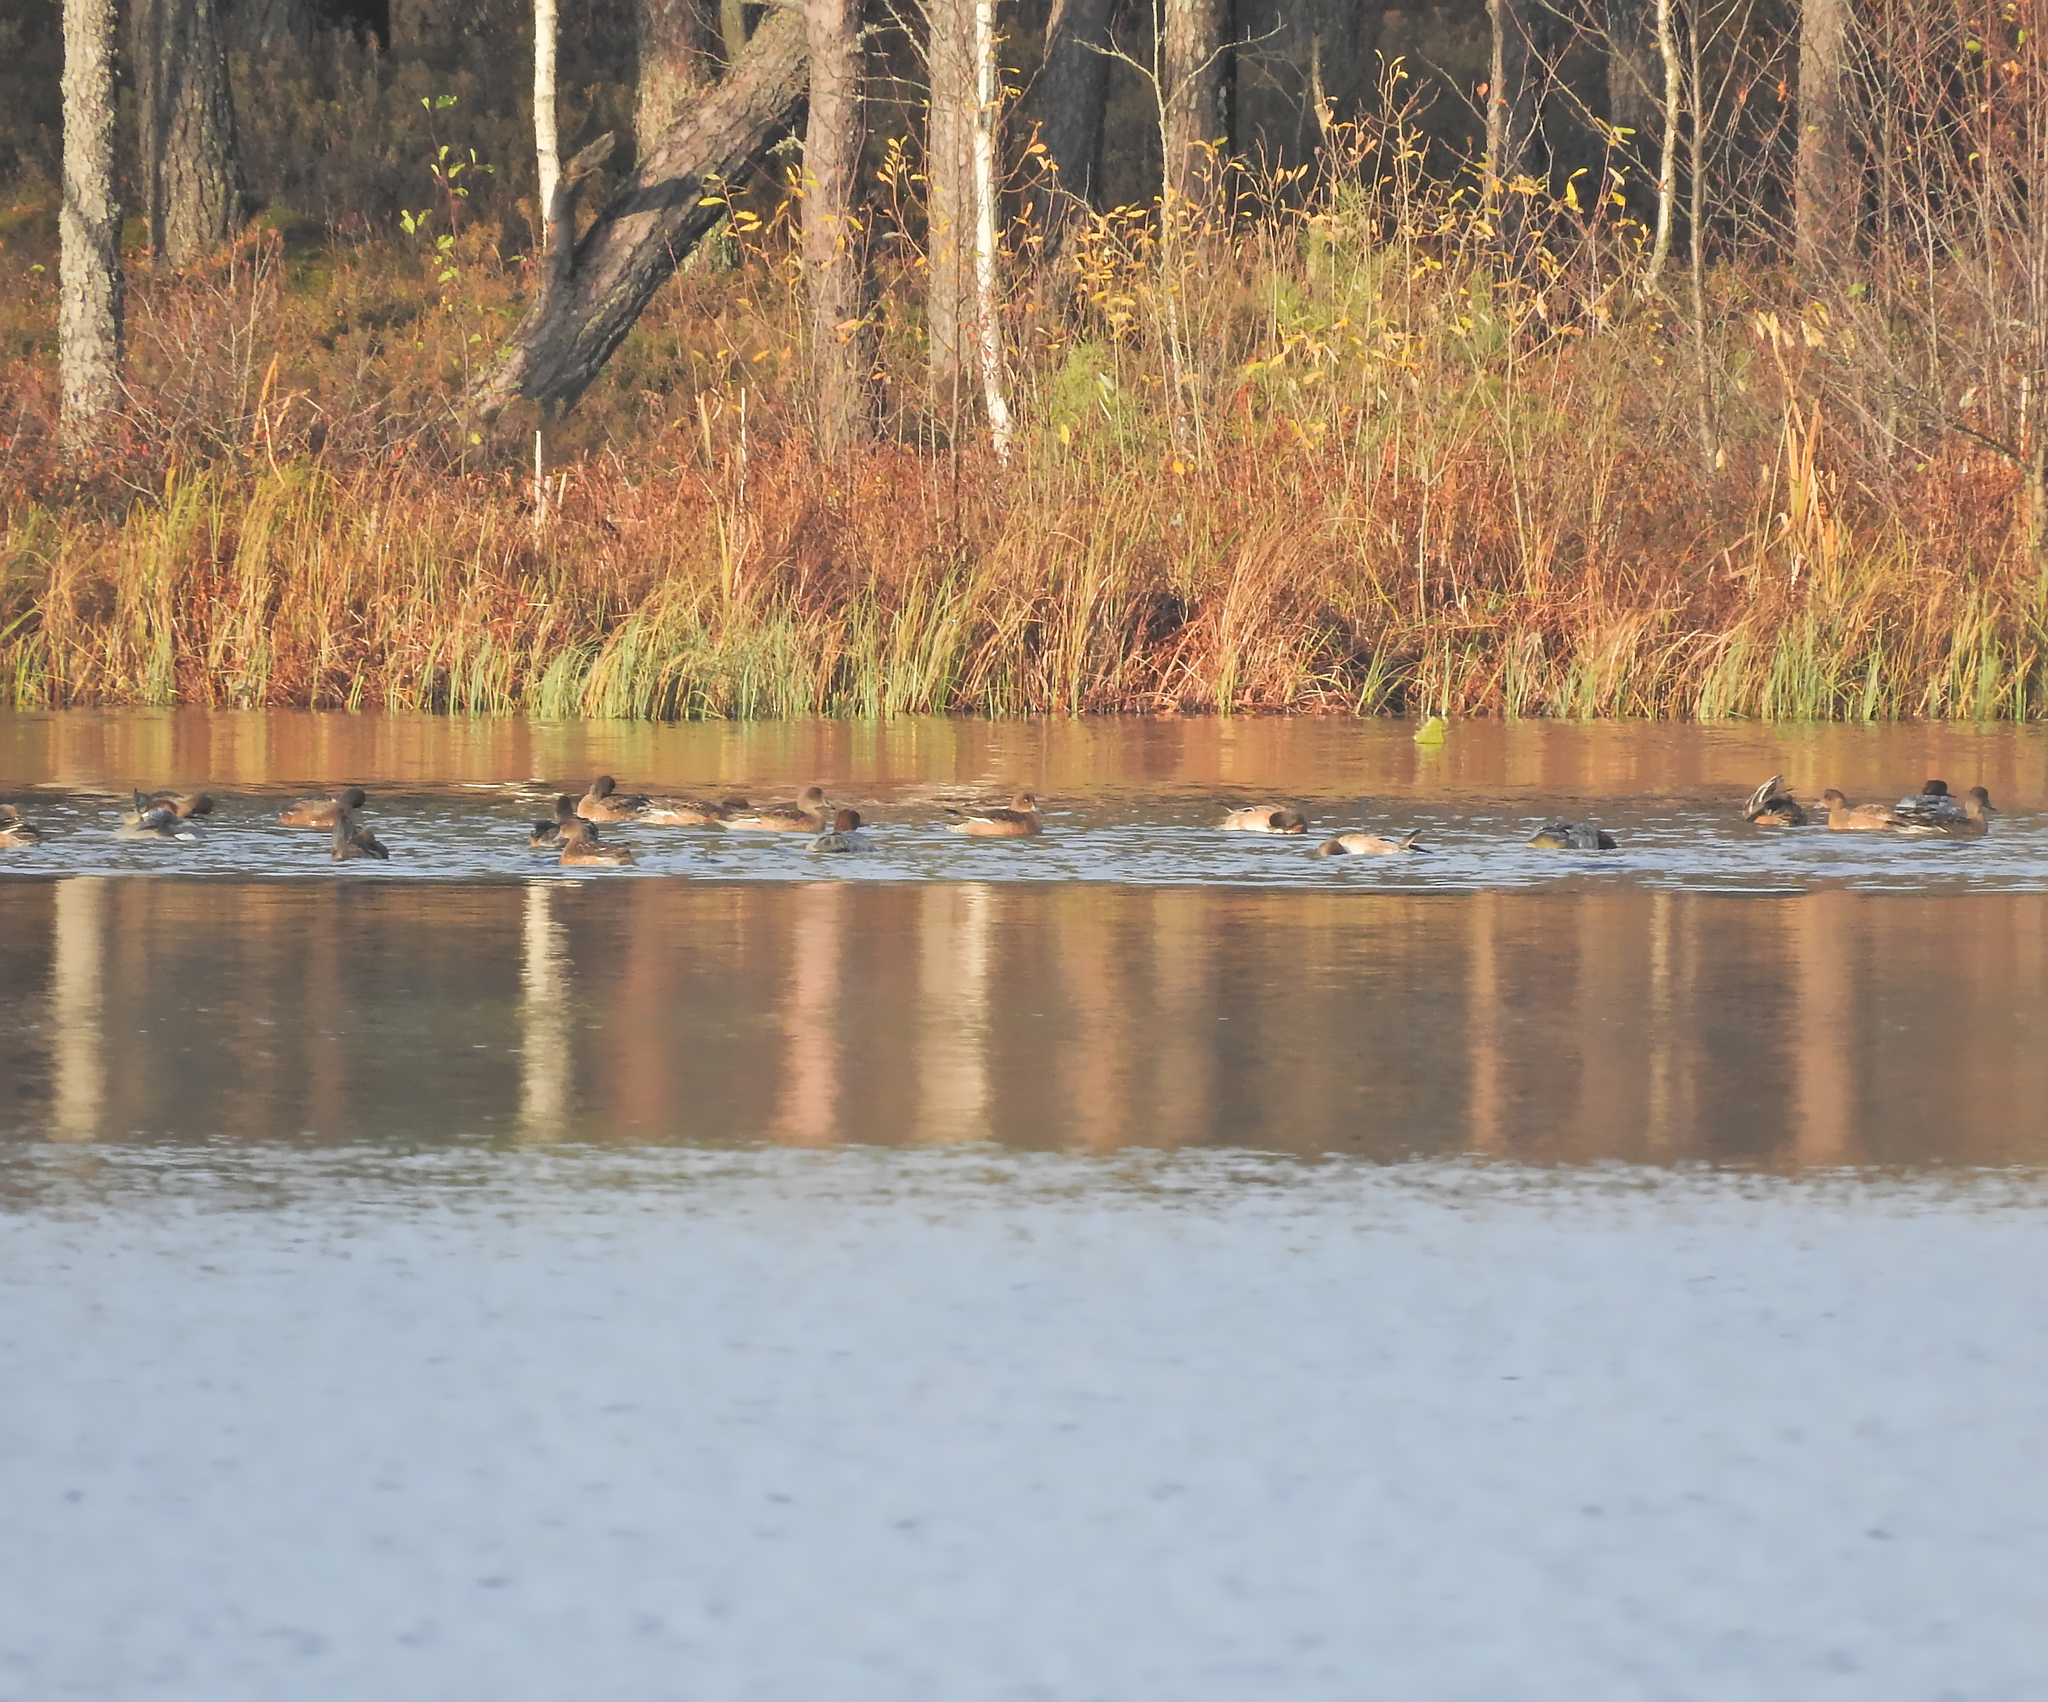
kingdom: Animalia
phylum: Chordata
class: Aves
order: Anseriformes
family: Anatidae
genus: Mareca
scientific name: Mareca penelope
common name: Eurasian wigeon
